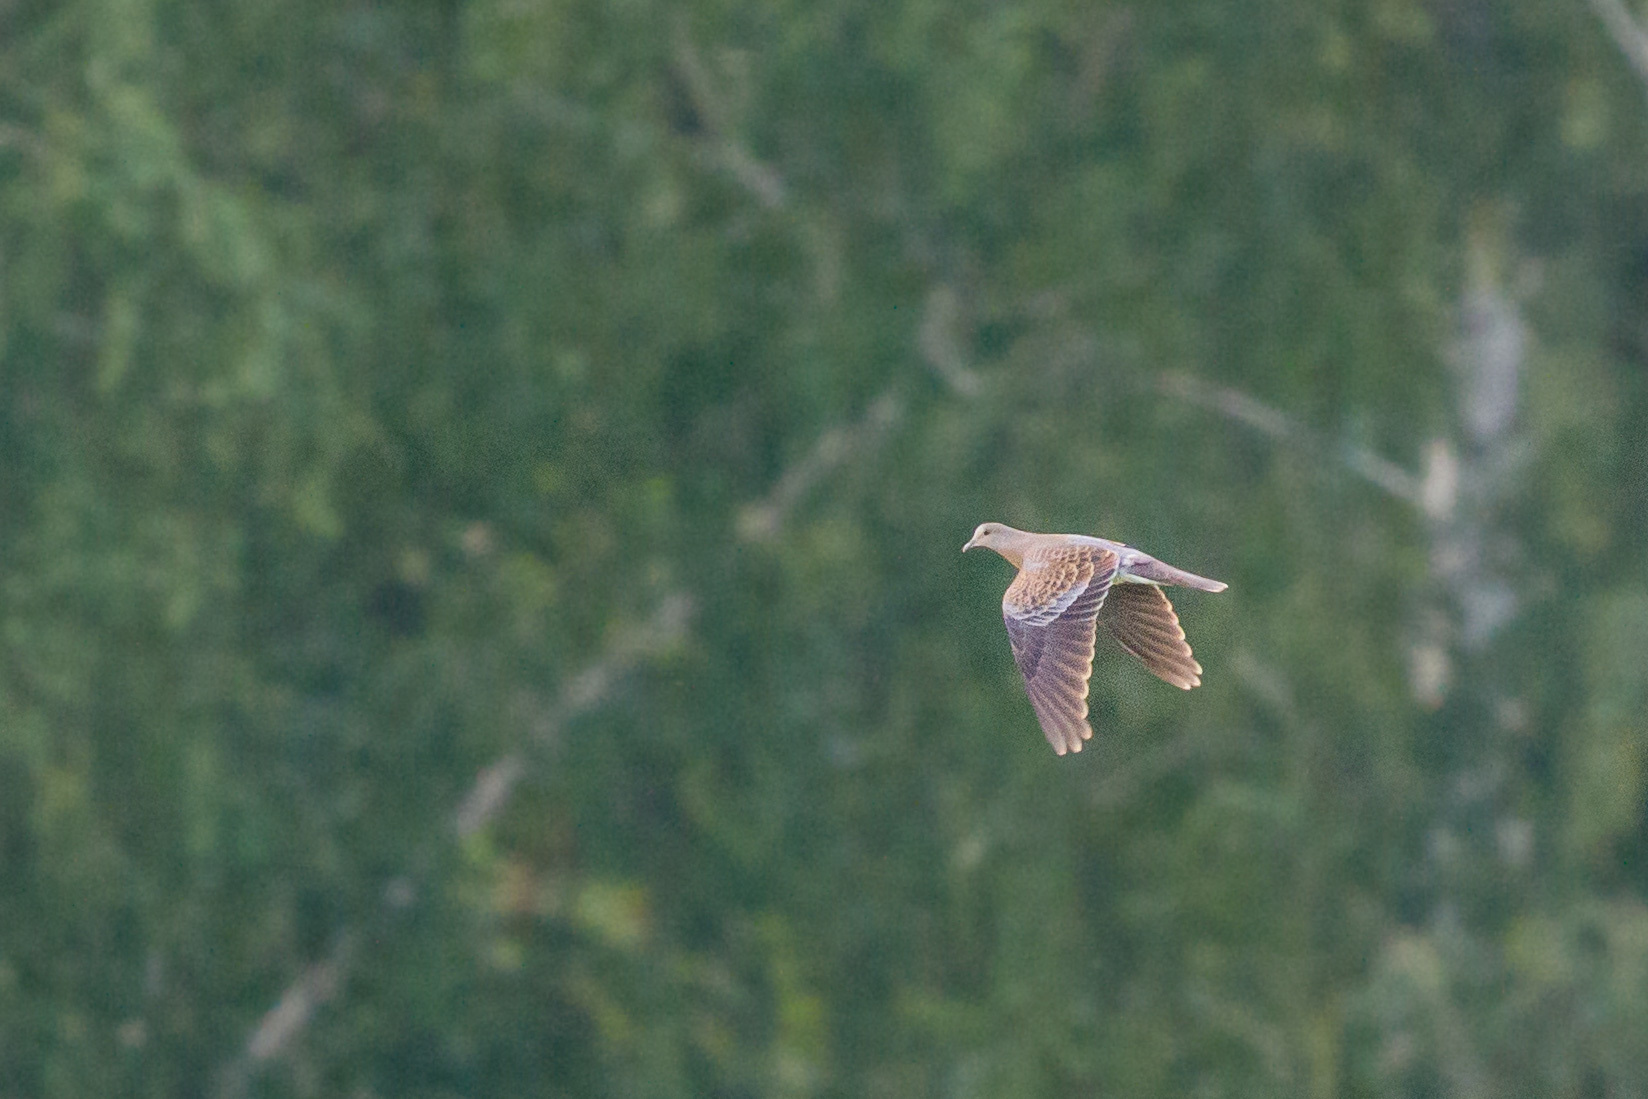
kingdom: Animalia
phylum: Chordata
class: Aves
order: Columbiformes
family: Columbidae
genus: Streptopelia
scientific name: Streptopelia orientalis
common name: Oriental turtle dove
